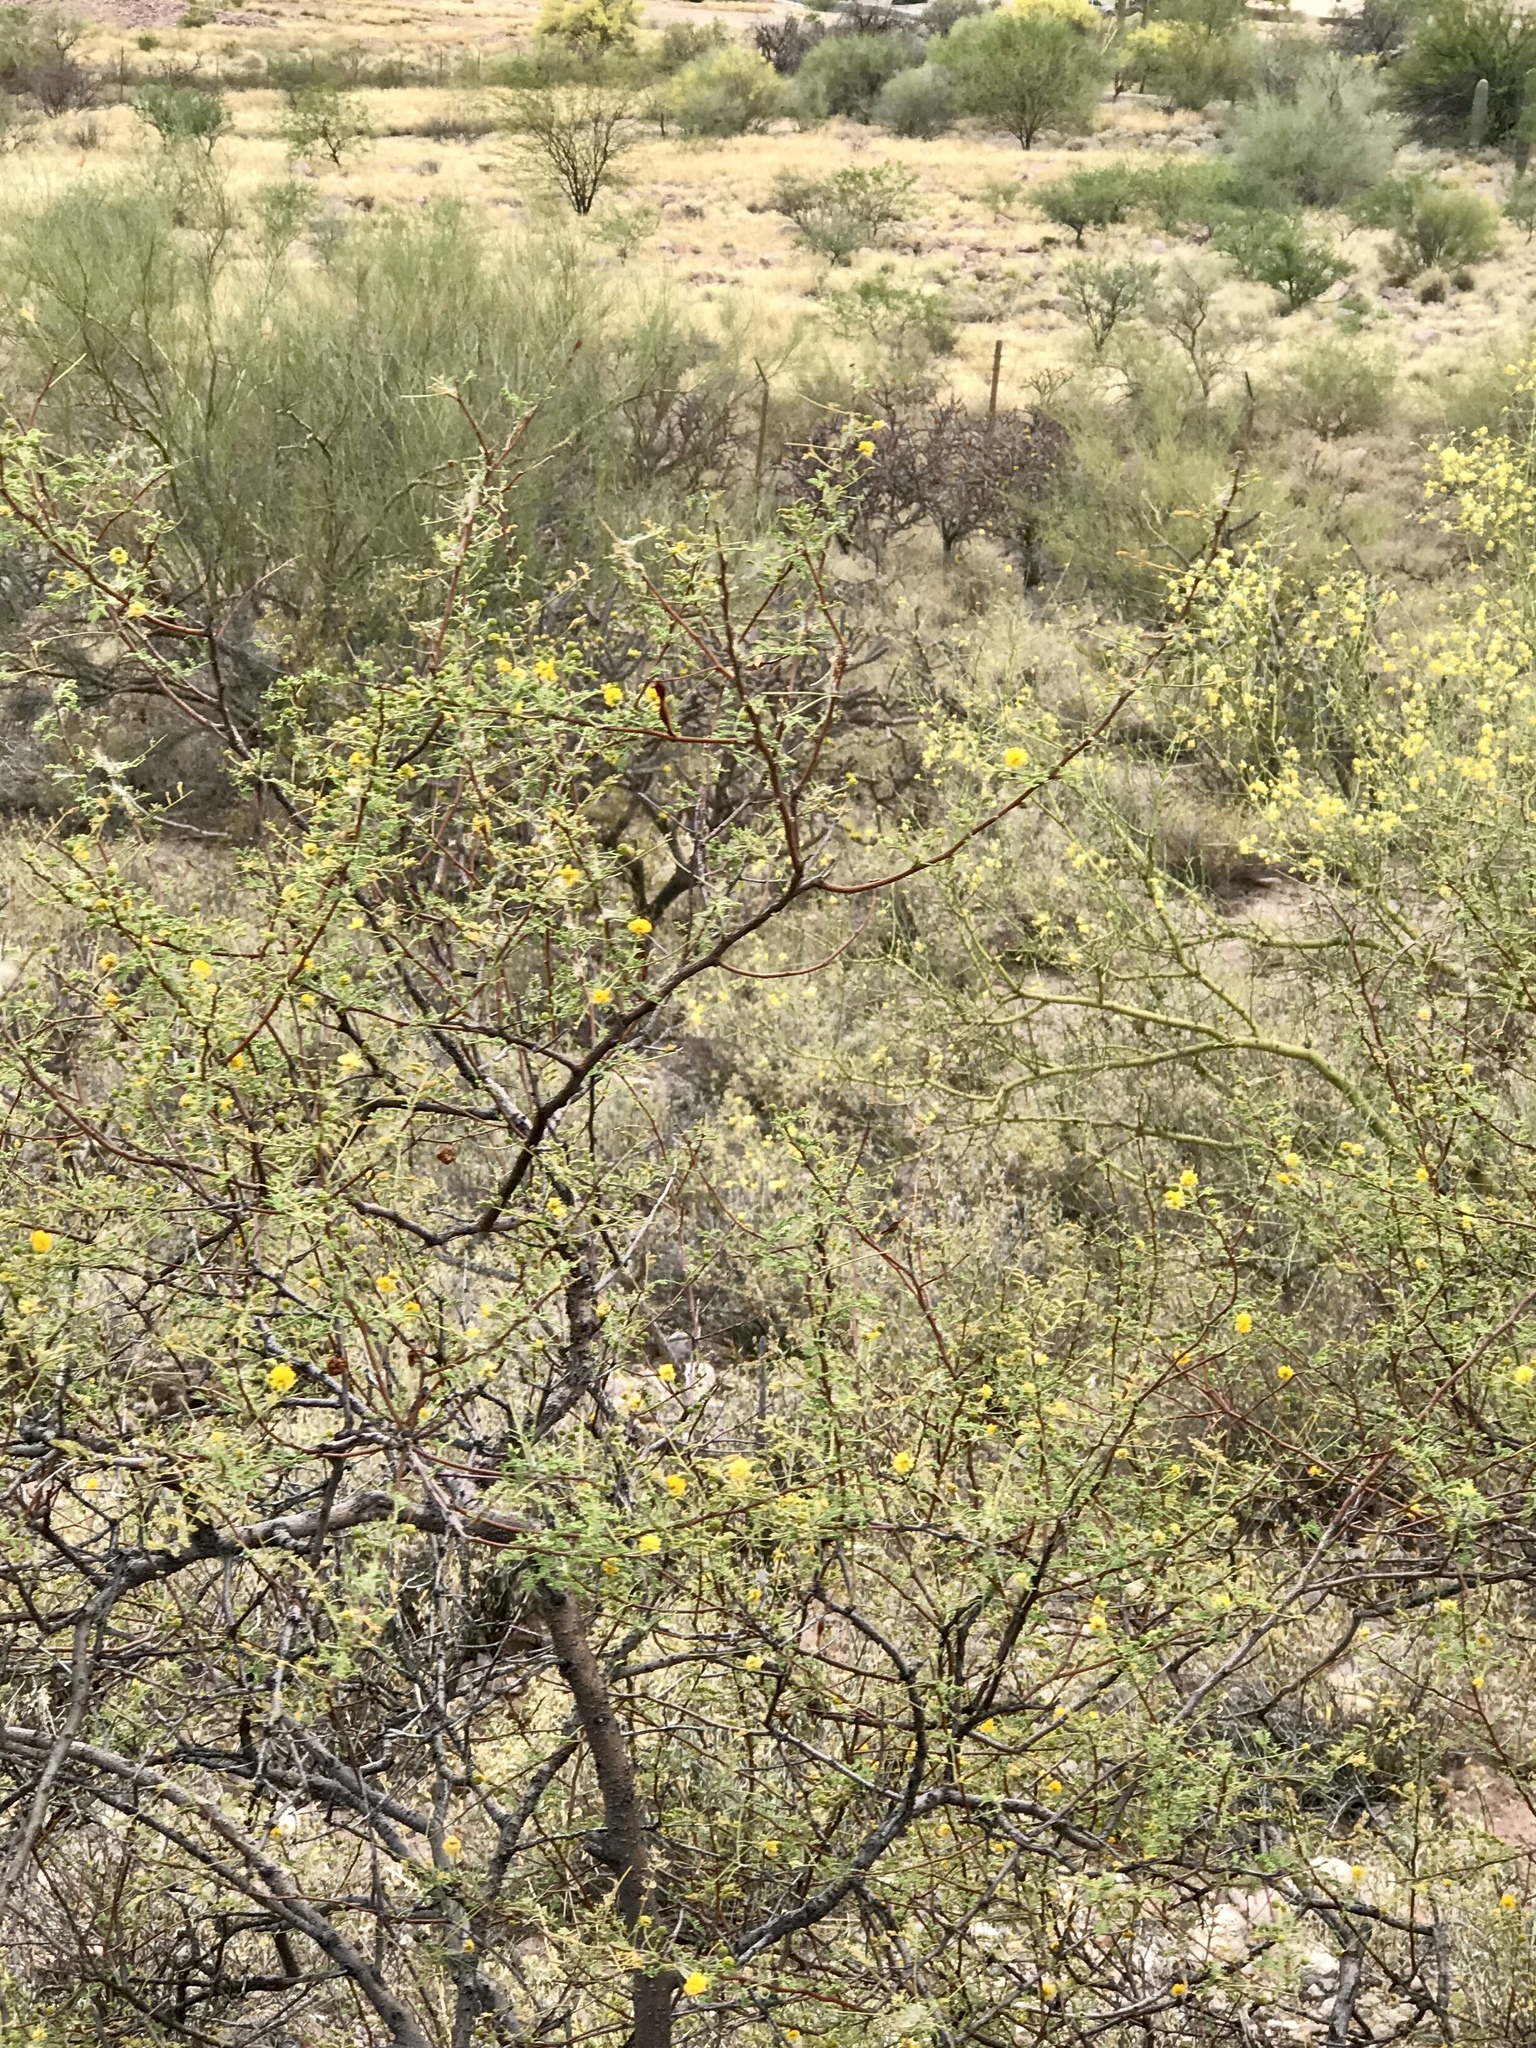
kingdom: Plantae
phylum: Tracheophyta
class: Magnoliopsida
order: Fabales
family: Fabaceae
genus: Vachellia
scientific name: Vachellia constricta
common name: Mescat acacia
